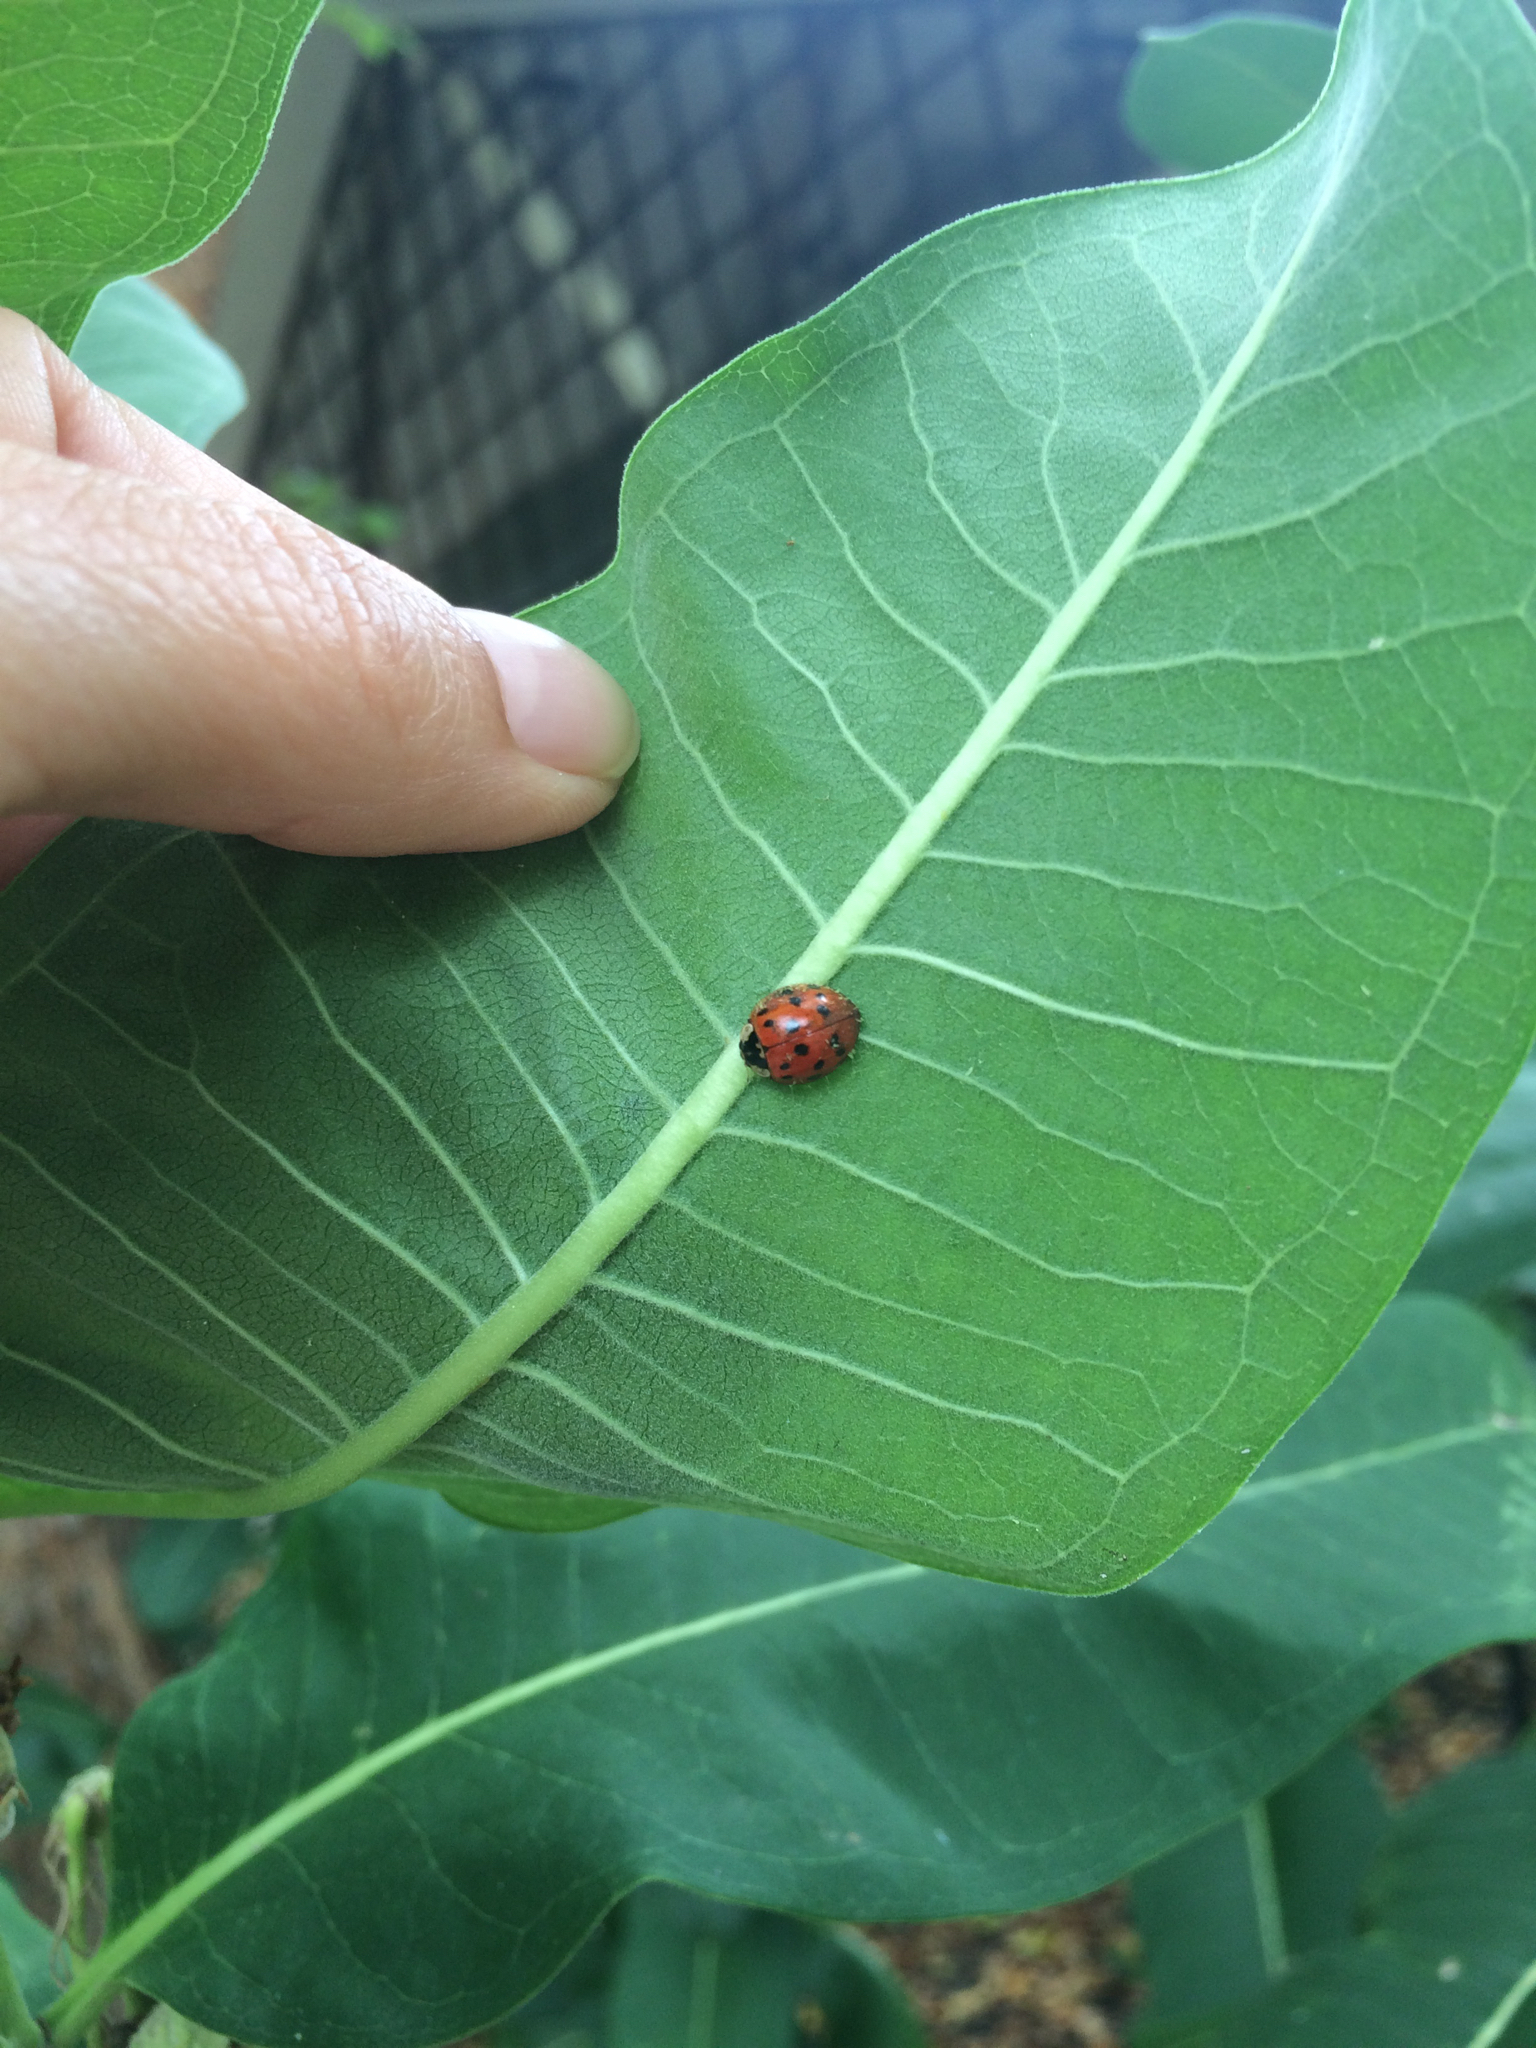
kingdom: Animalia
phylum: Arthropoda
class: Insecta
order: Coleoptera
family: Coccinellidae
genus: Harmonia
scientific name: Harmonia axyridis
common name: Harlequin ladybird
